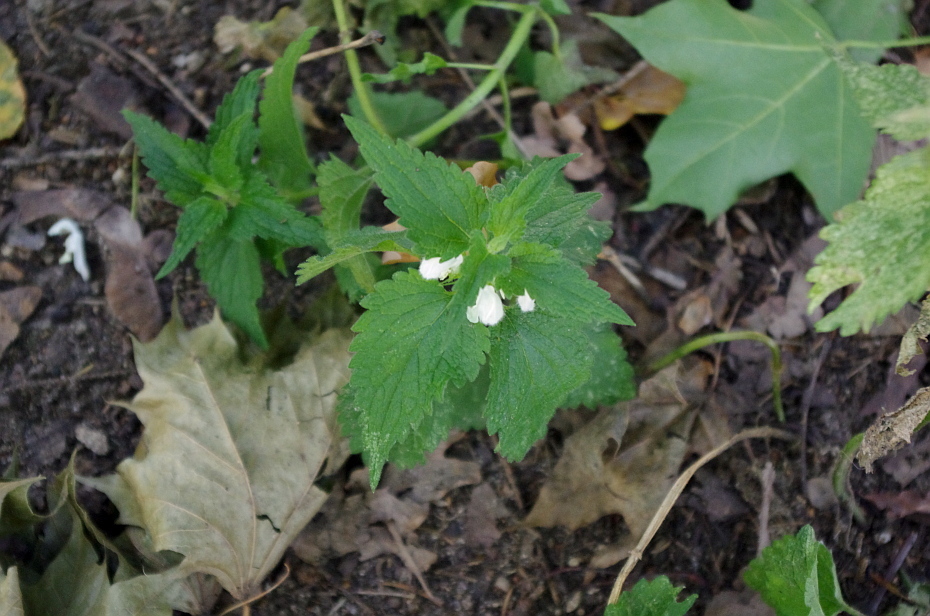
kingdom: Plantae
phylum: Tracheophyta
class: Magnoliopsida
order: Lamiales
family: Lamiaceae
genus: Lamium
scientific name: Lamium album
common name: White dead-nettle
